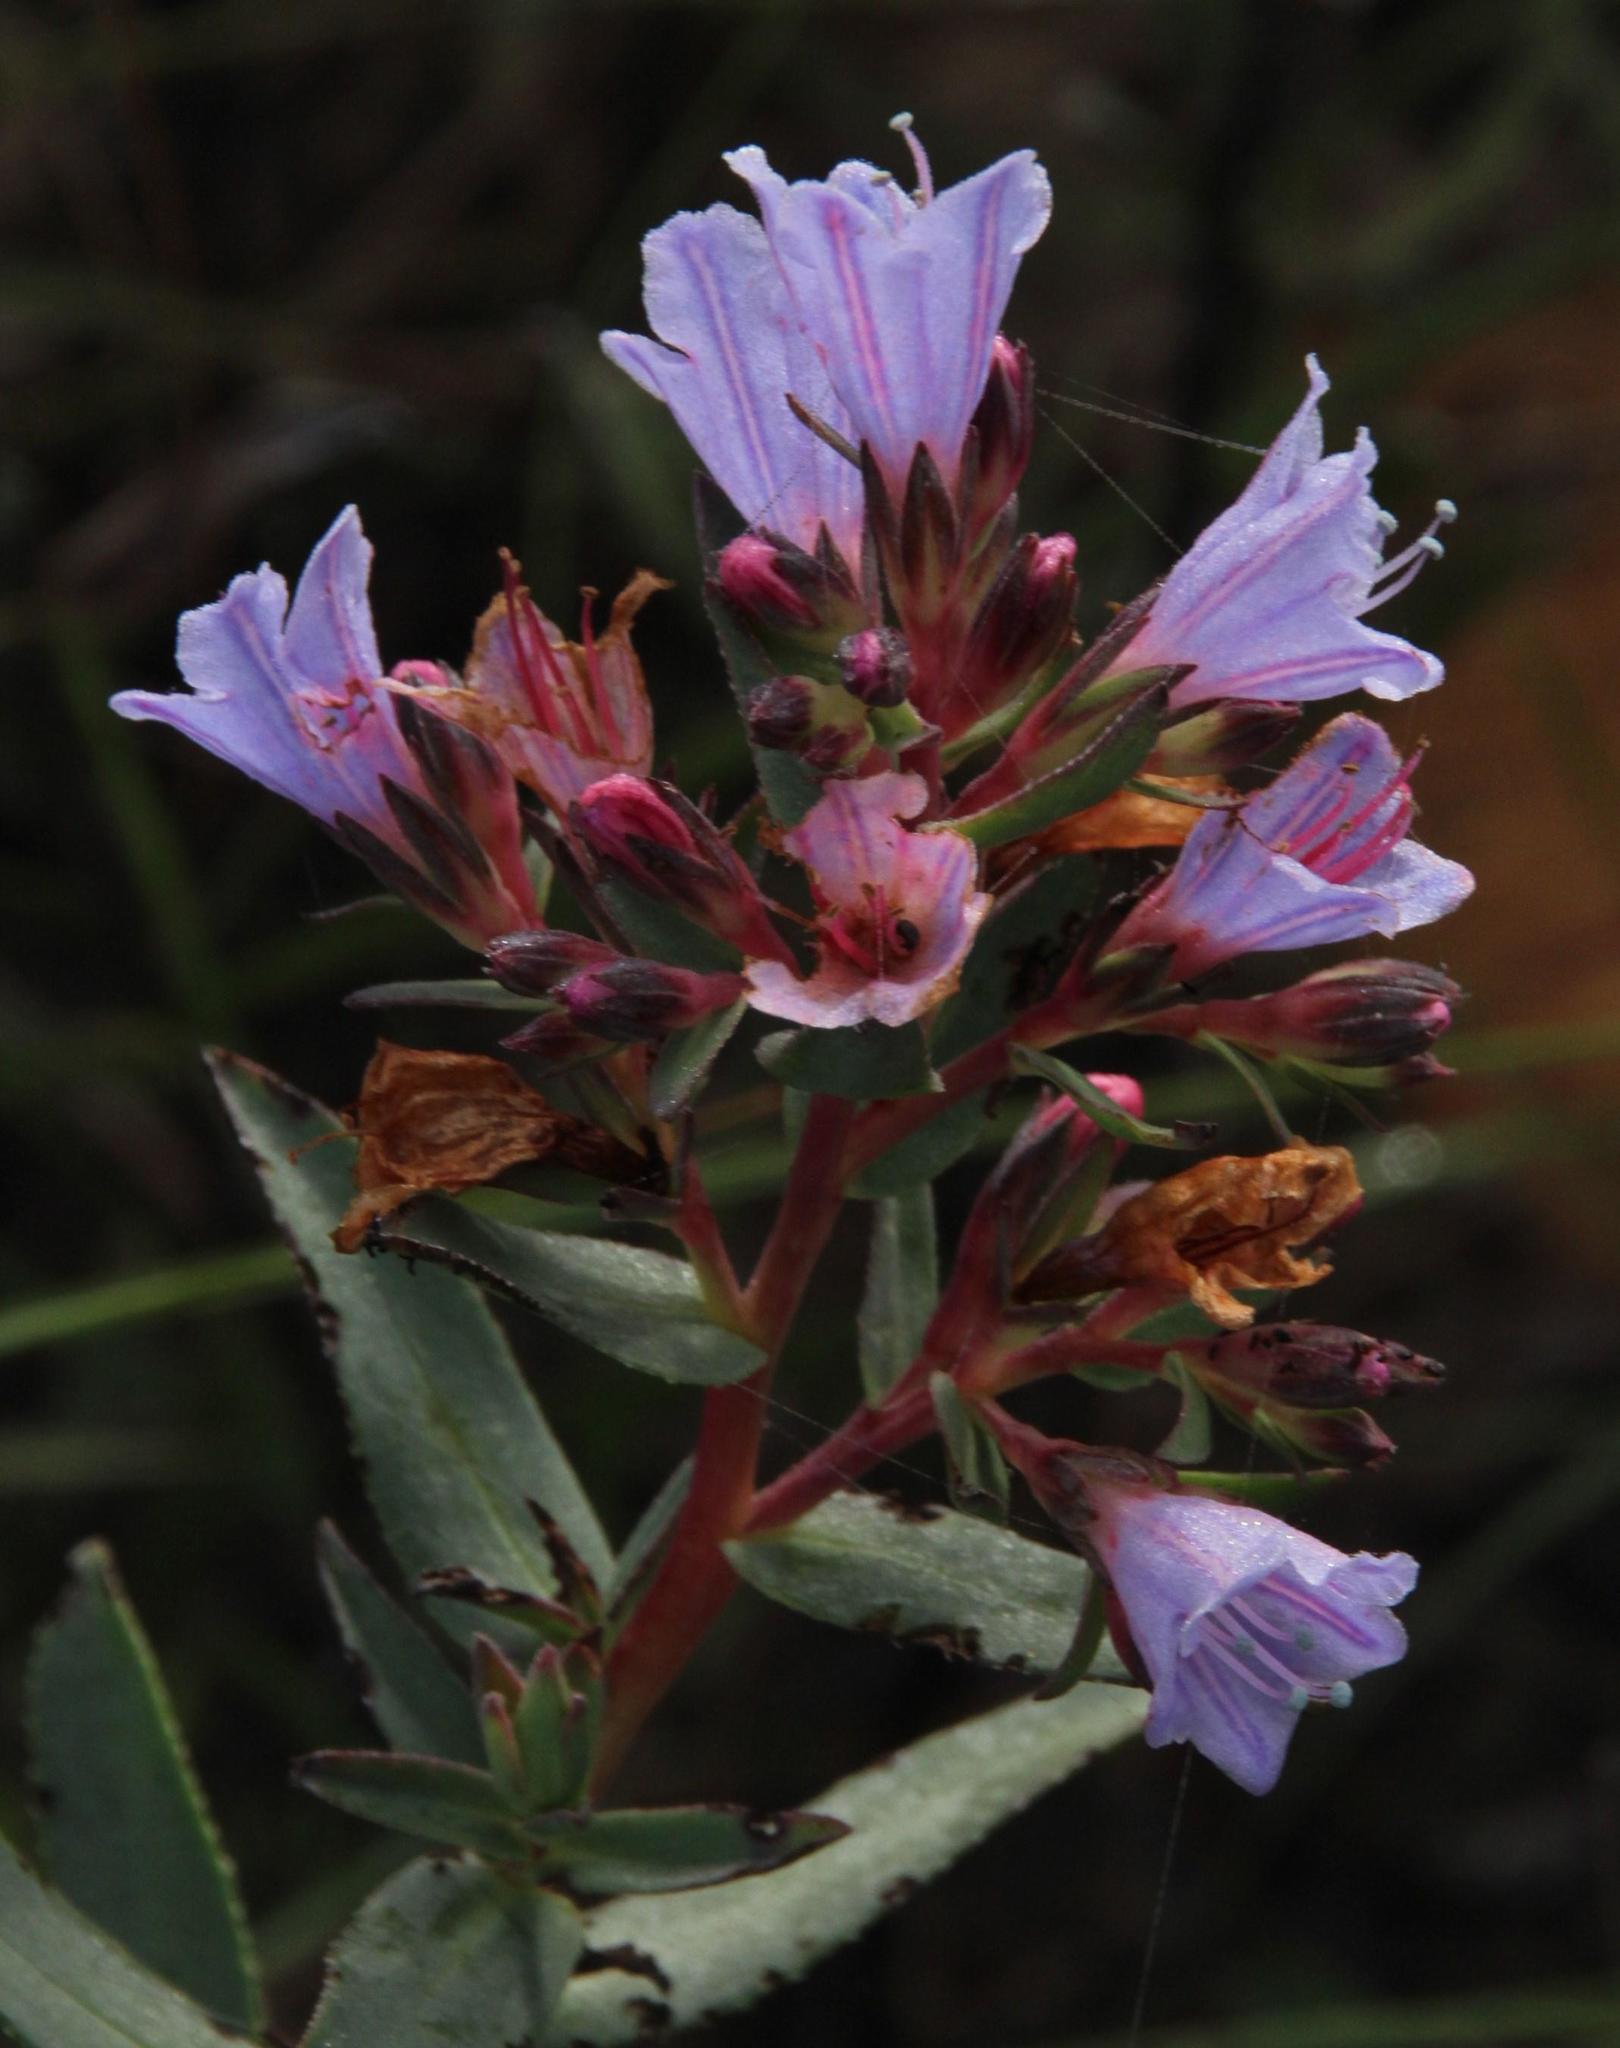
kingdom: Plantae
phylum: Tracheophyta
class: Magnoliopsida
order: Boraginales
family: Boraginaceae
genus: Lobostemon
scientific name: Lobostemon fruticosus
